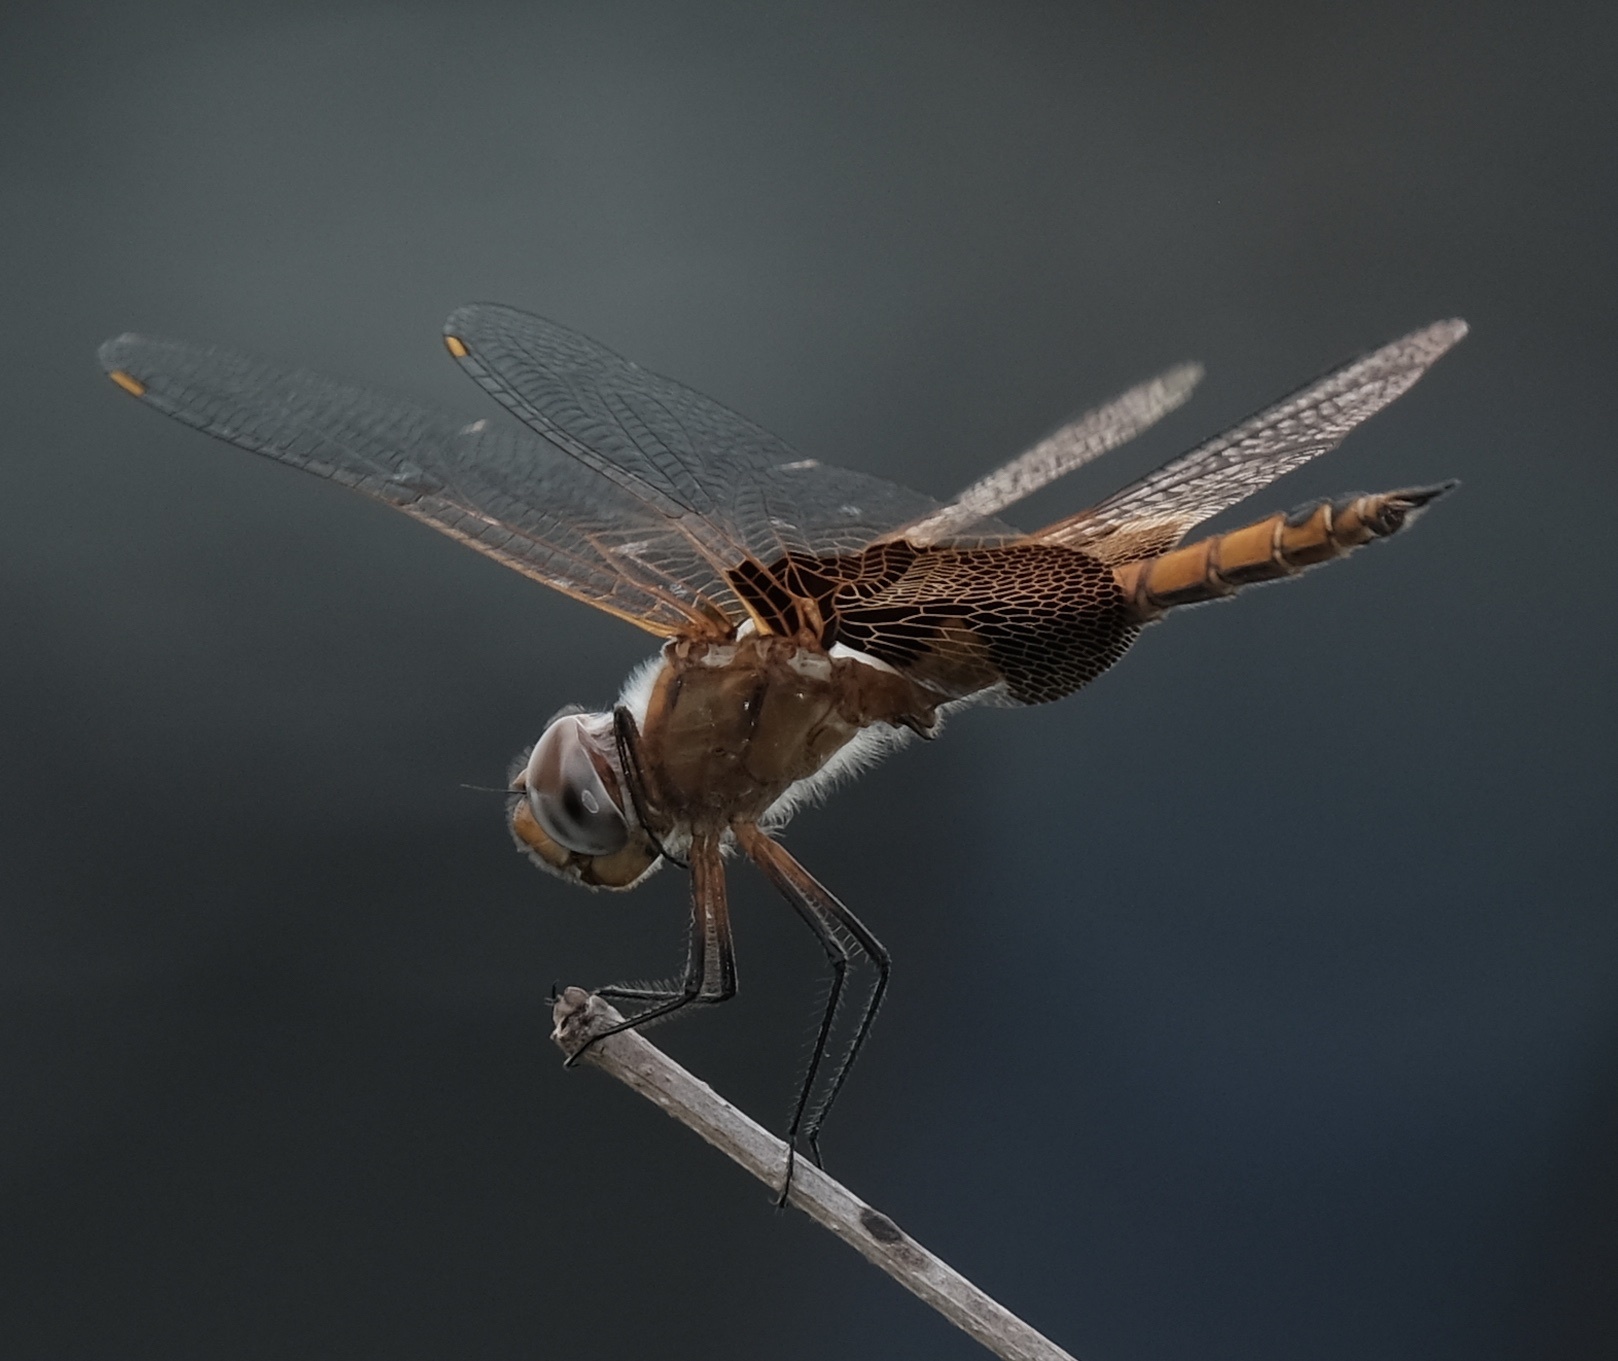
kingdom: Animalia
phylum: Arthropoda
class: Insecta
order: Odonata
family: Libellulidae
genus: Tramea
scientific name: Tramea onusta
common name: Red saddlebags
